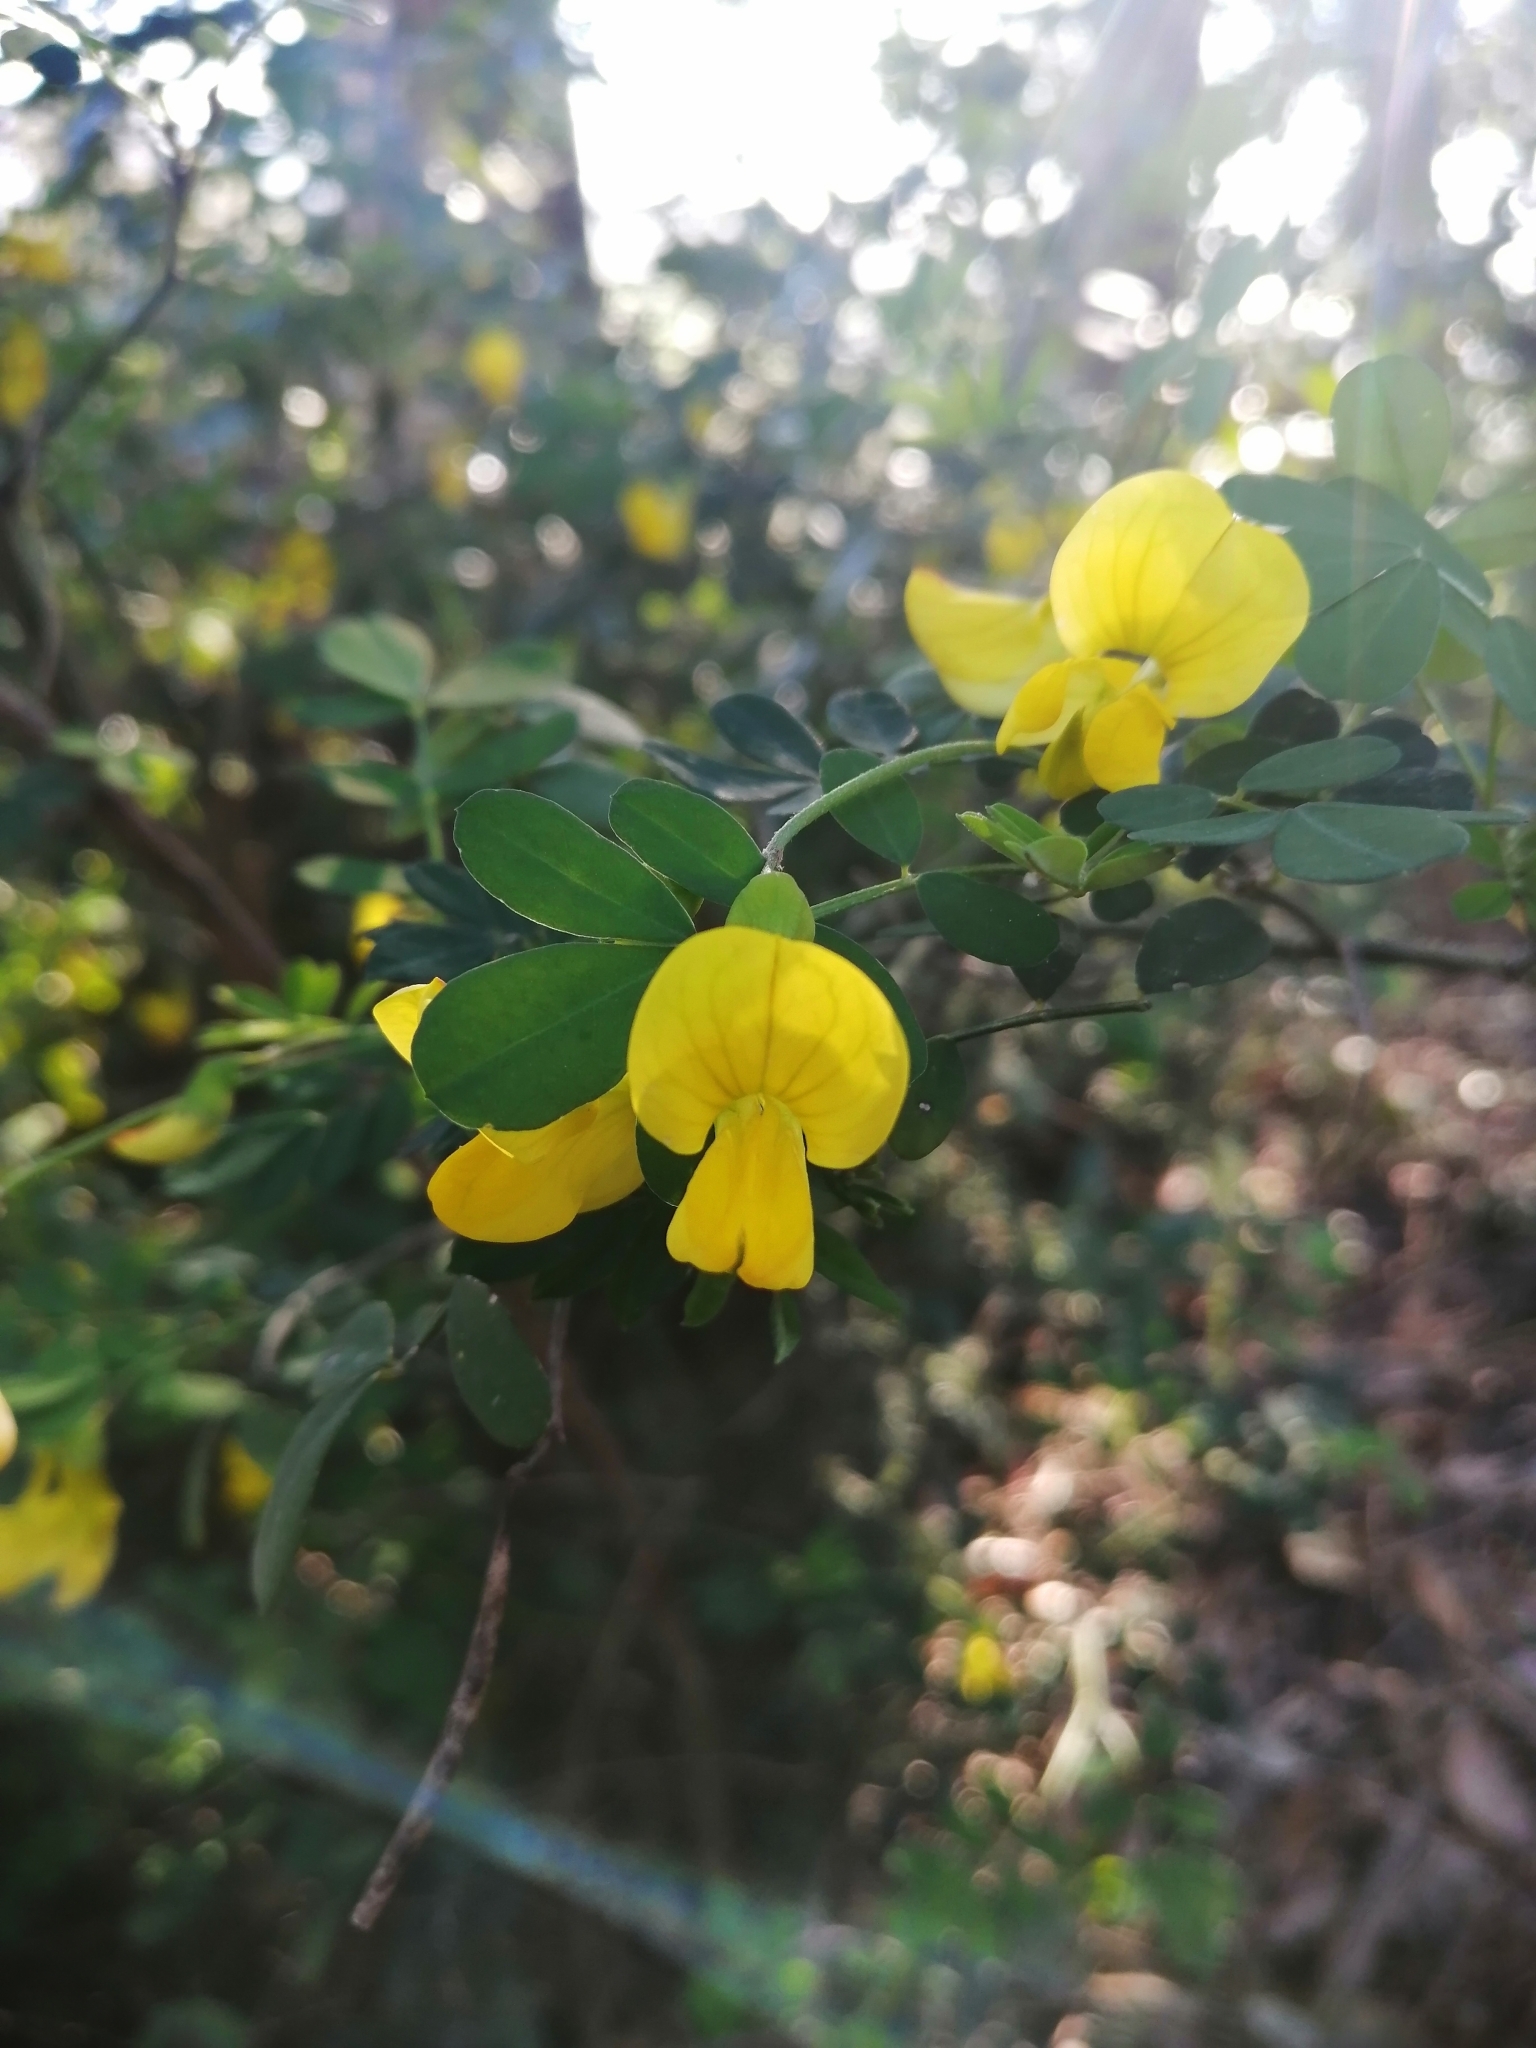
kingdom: Plantae
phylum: Tracheophyta
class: Magnoliopsida
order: Fabales
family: Fabaceae
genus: Hippocrepis
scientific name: Hippocrepis emerus
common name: Scorpion senna
